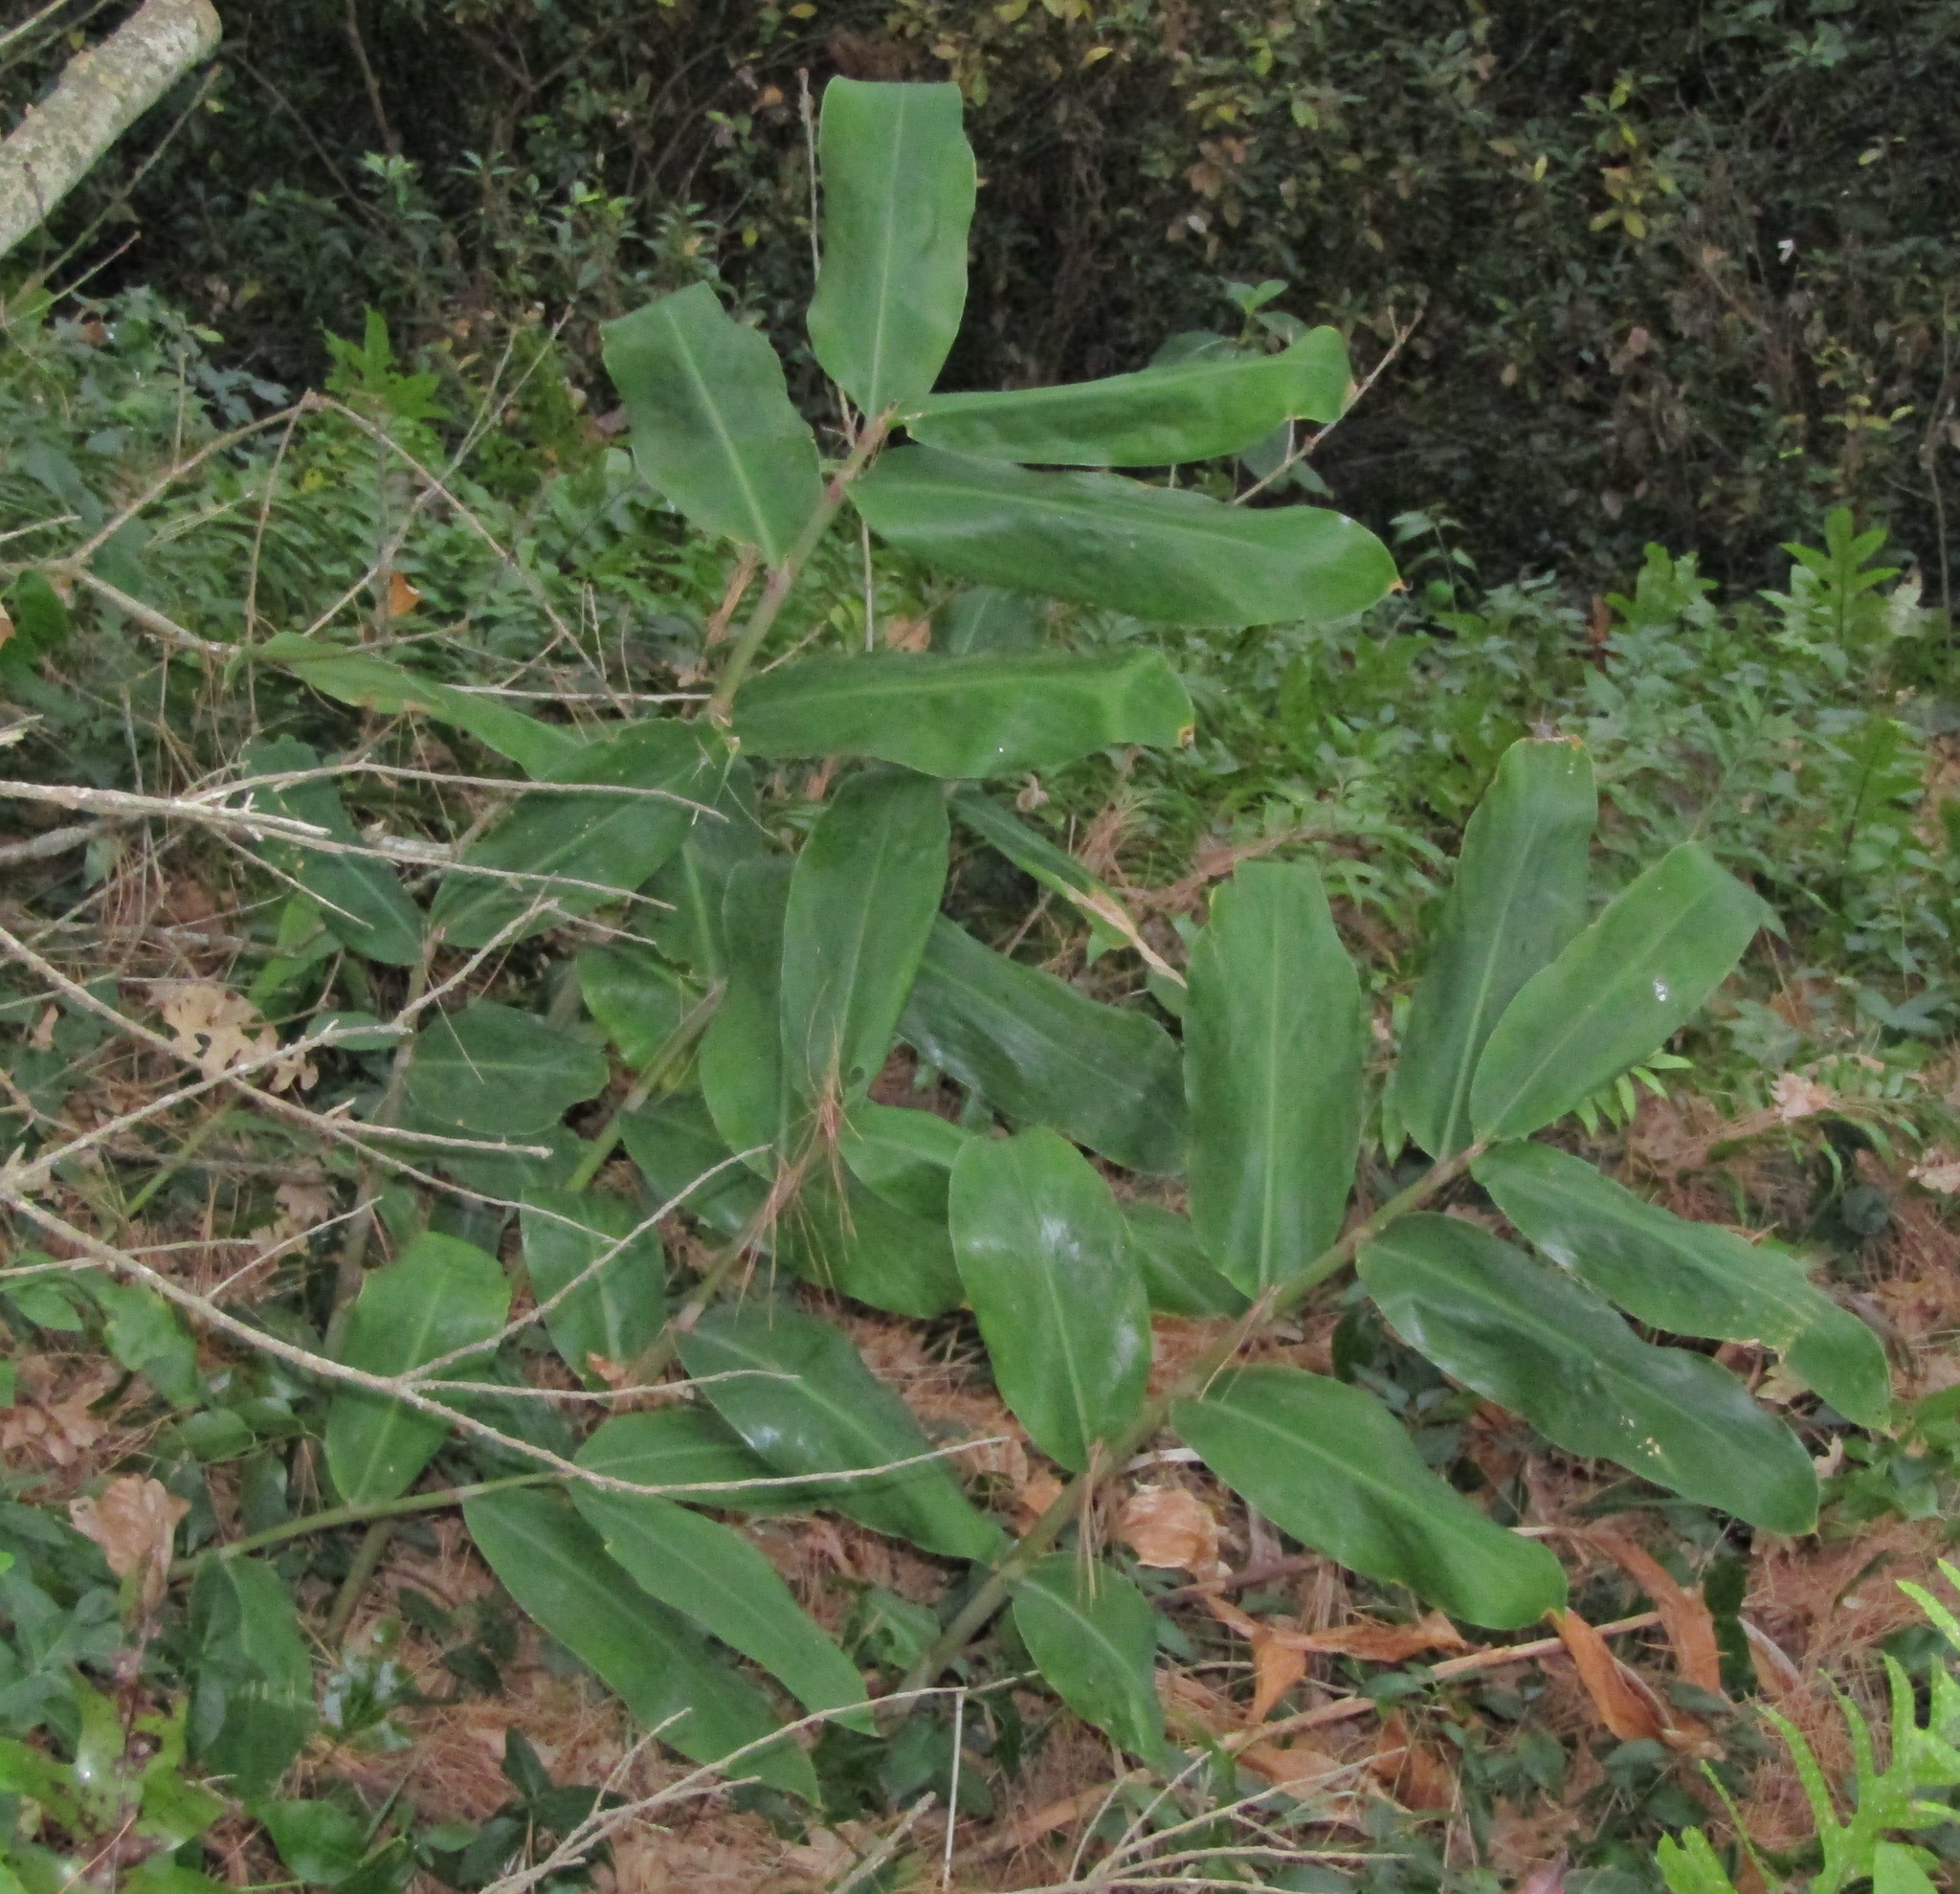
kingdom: Plantae
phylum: Tracheophyta
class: Liliopsida
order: Zingiberales
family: Zingiberaceae
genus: Hedychium
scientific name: Hedychium gardnerianum
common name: Himalayan ginger
